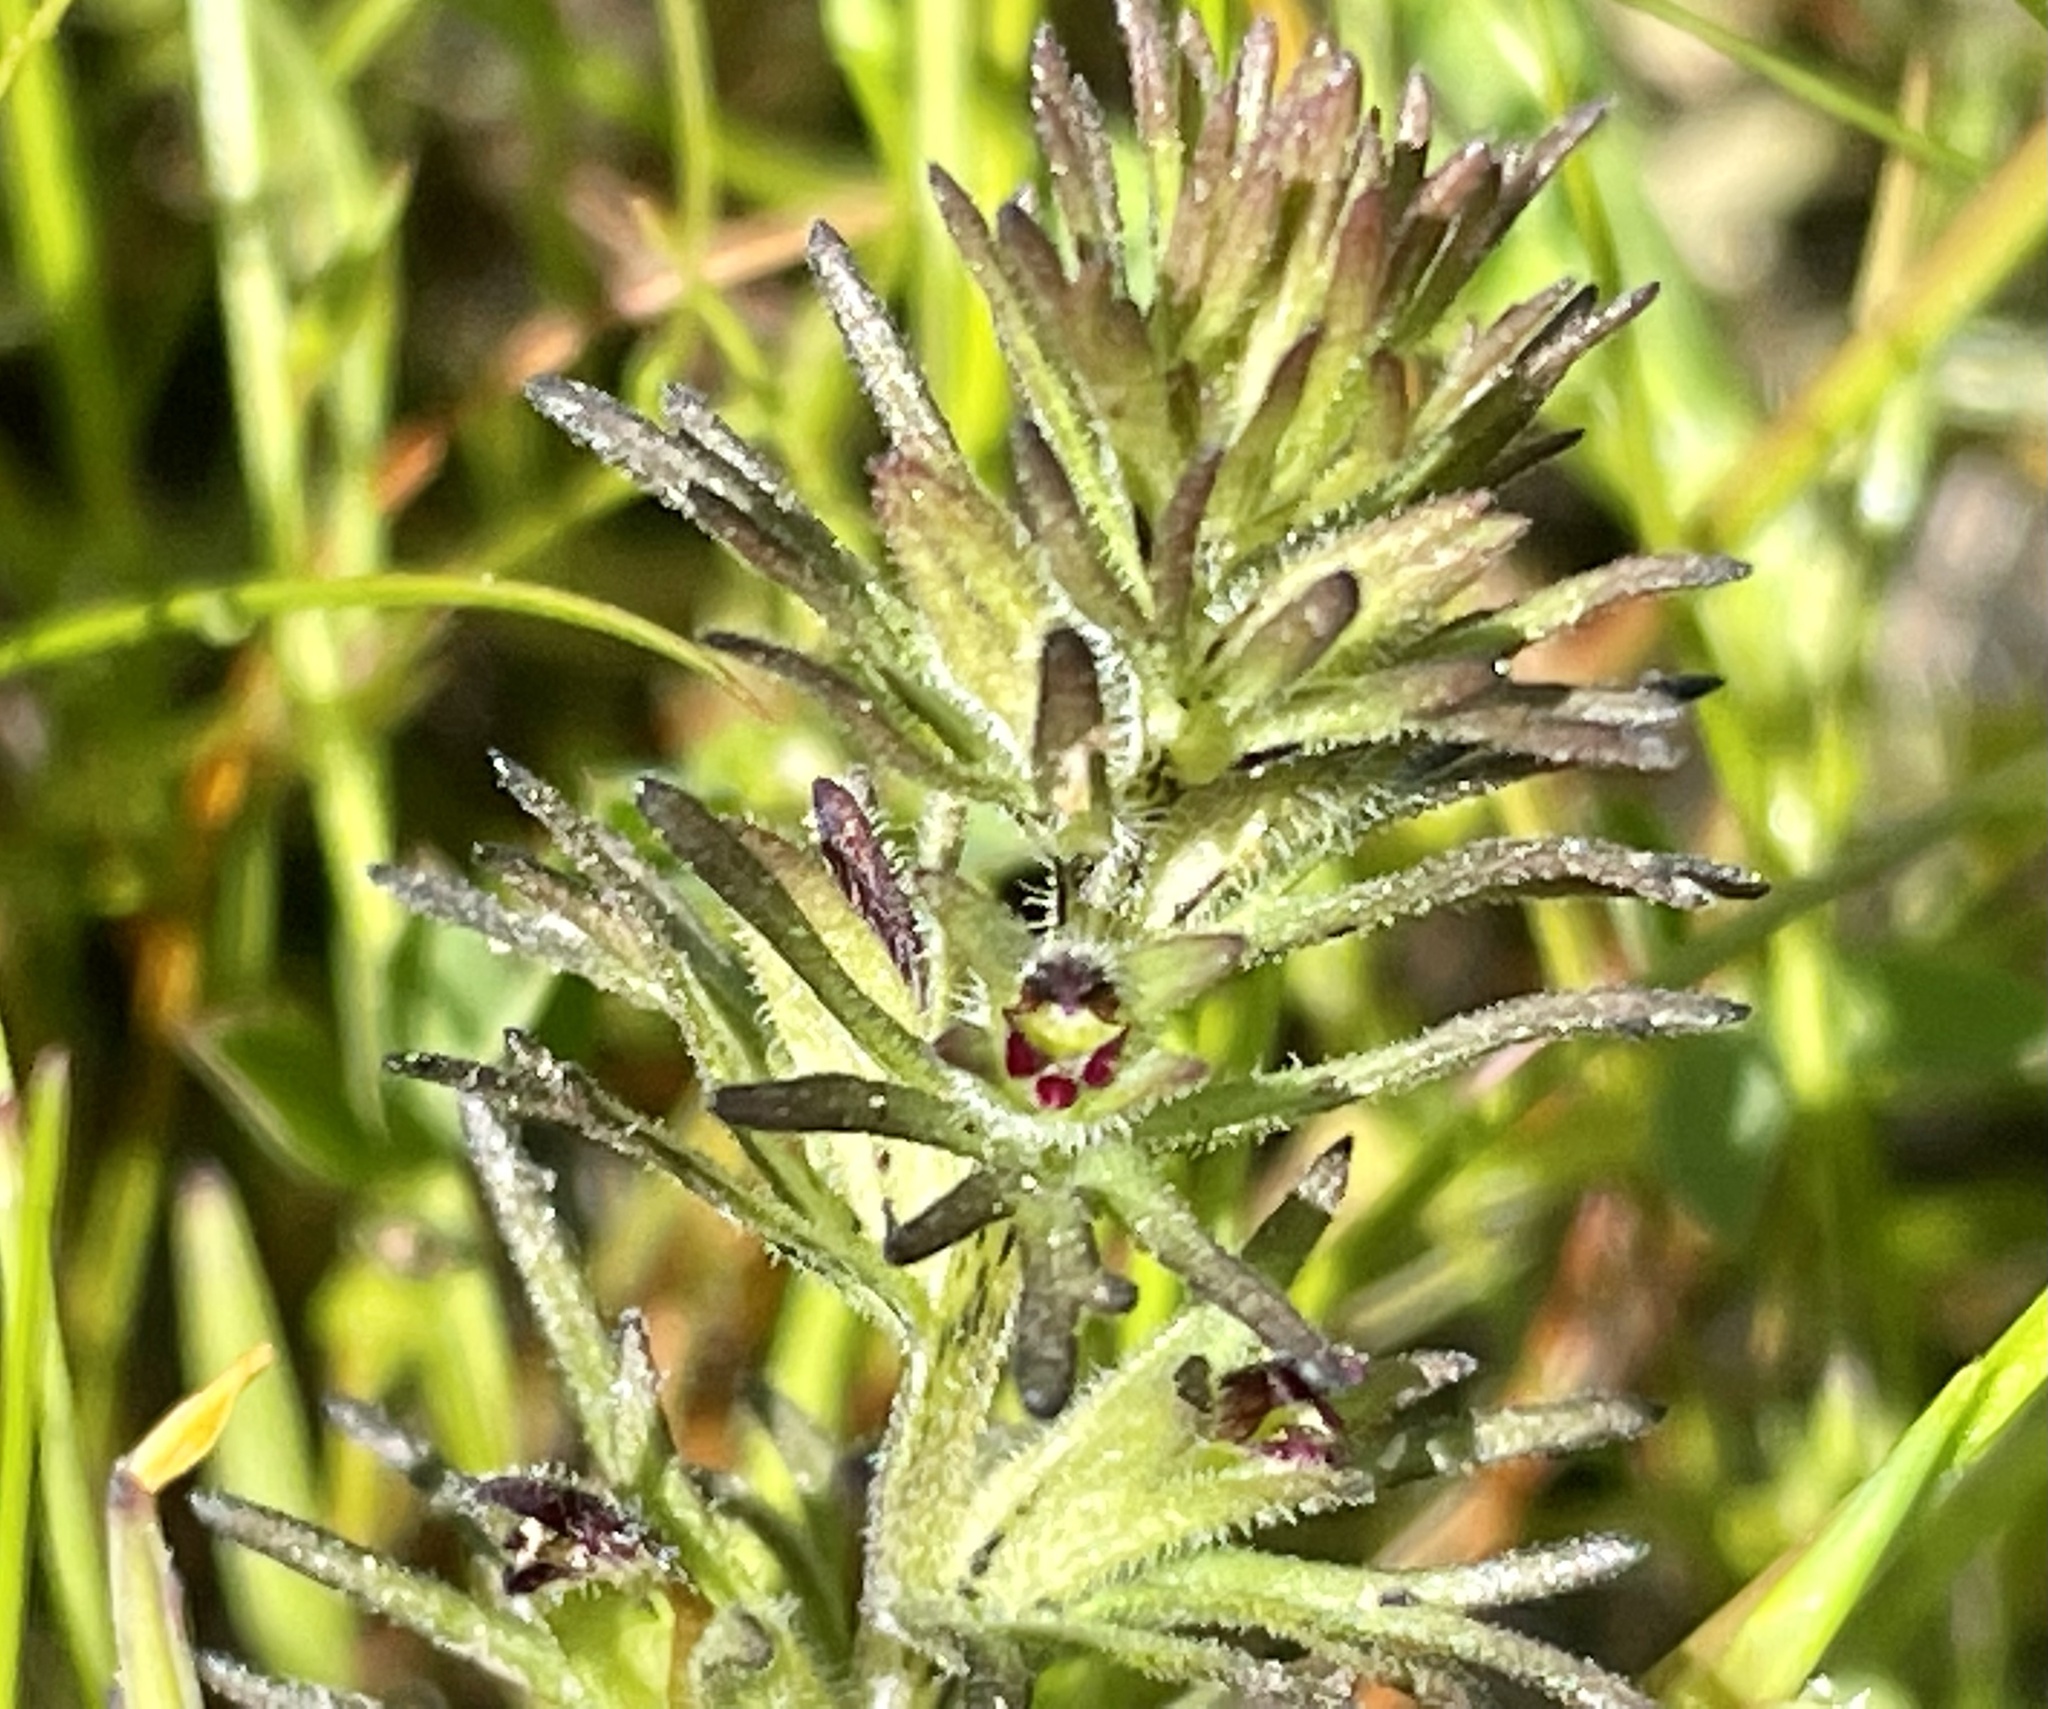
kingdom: Plantae
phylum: Tracheophyta
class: Magnoliopsida
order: Lamiales
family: Orobanchaceae
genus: Triphysaria
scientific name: Triphysaria pusilla
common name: Dwarf false owl-clover
